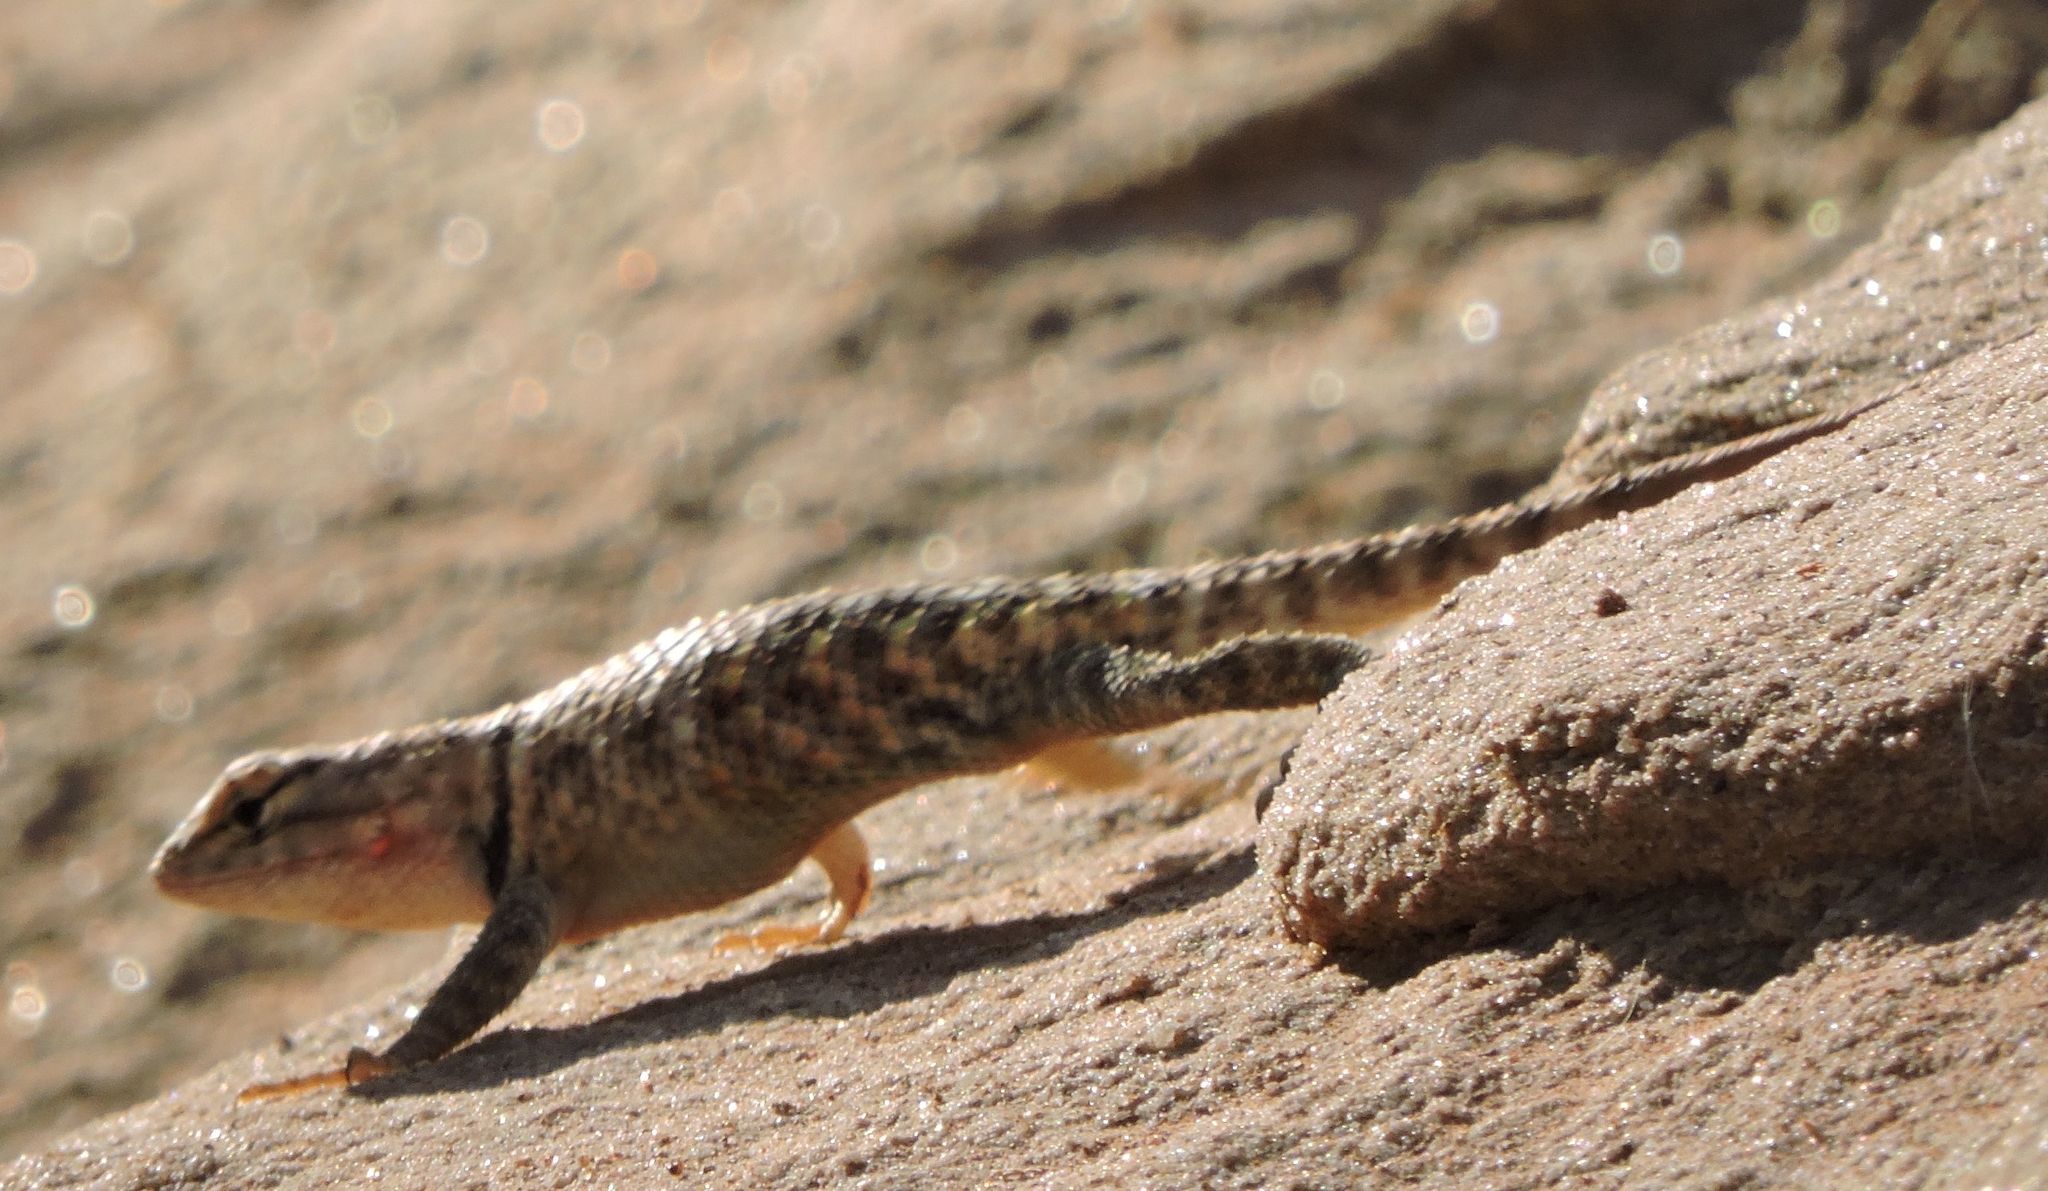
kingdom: Animalia
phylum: Chordata
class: Squamata
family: Phrynosomatidae
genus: Sceloporus
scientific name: Sceloporus magister
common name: Desert spiny lizard
